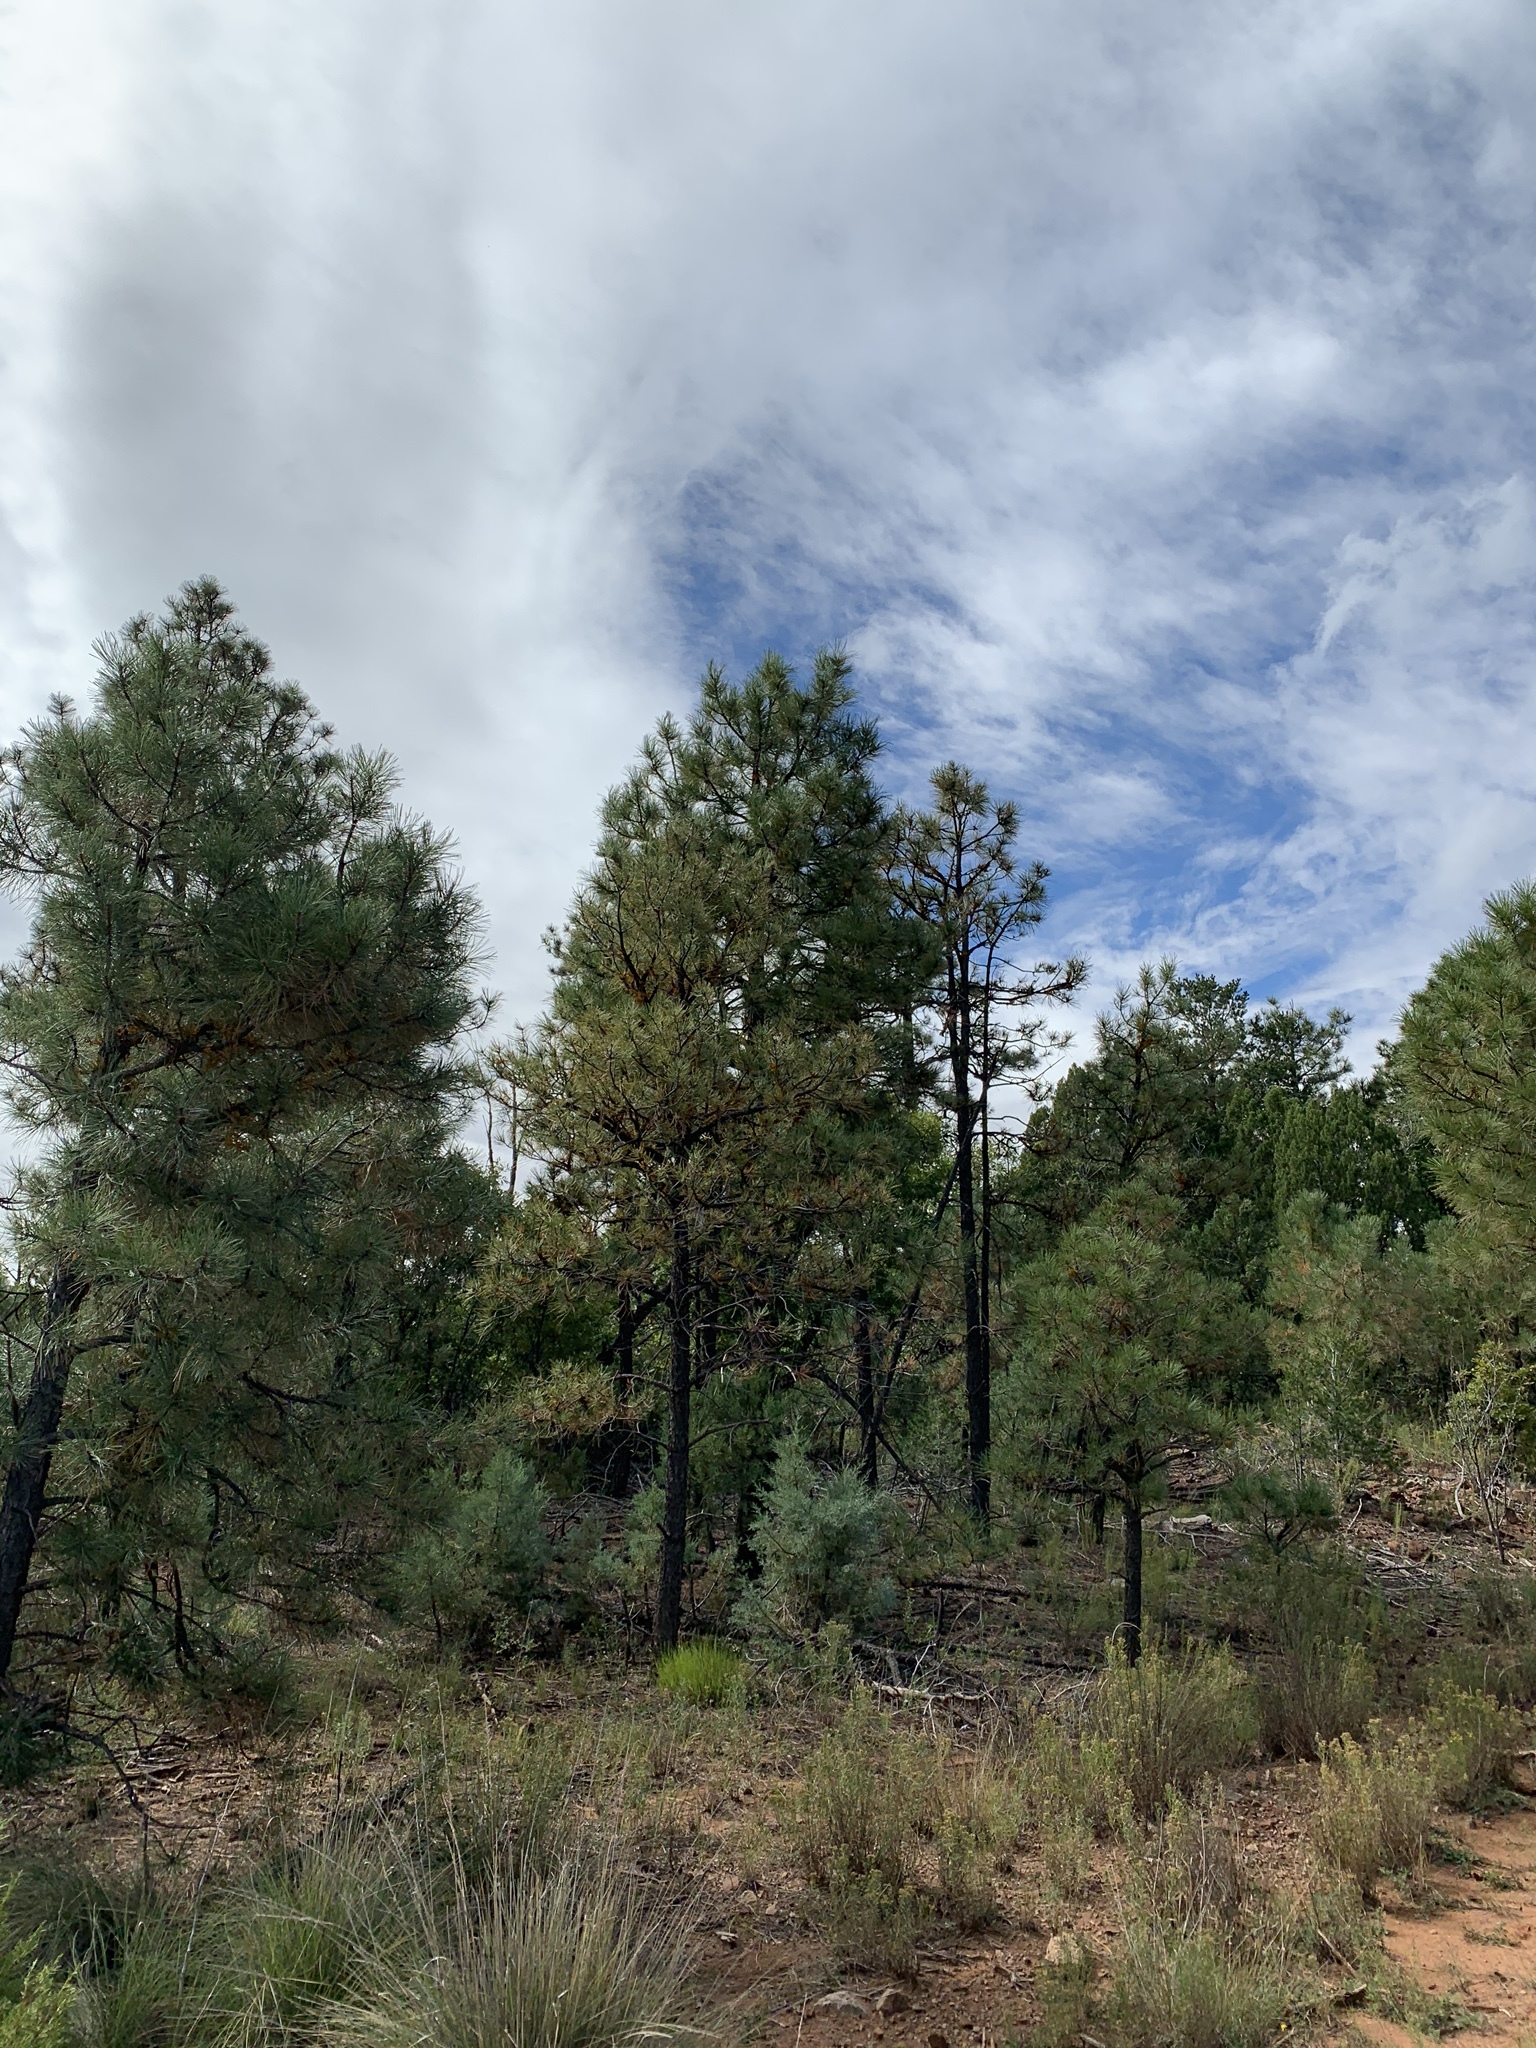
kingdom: Plantae
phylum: Tracheophyta
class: Pinopsida
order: Pinales
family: Pinaceae
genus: Pinus
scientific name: Pinus ponderosa
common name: Western yellow-pine
